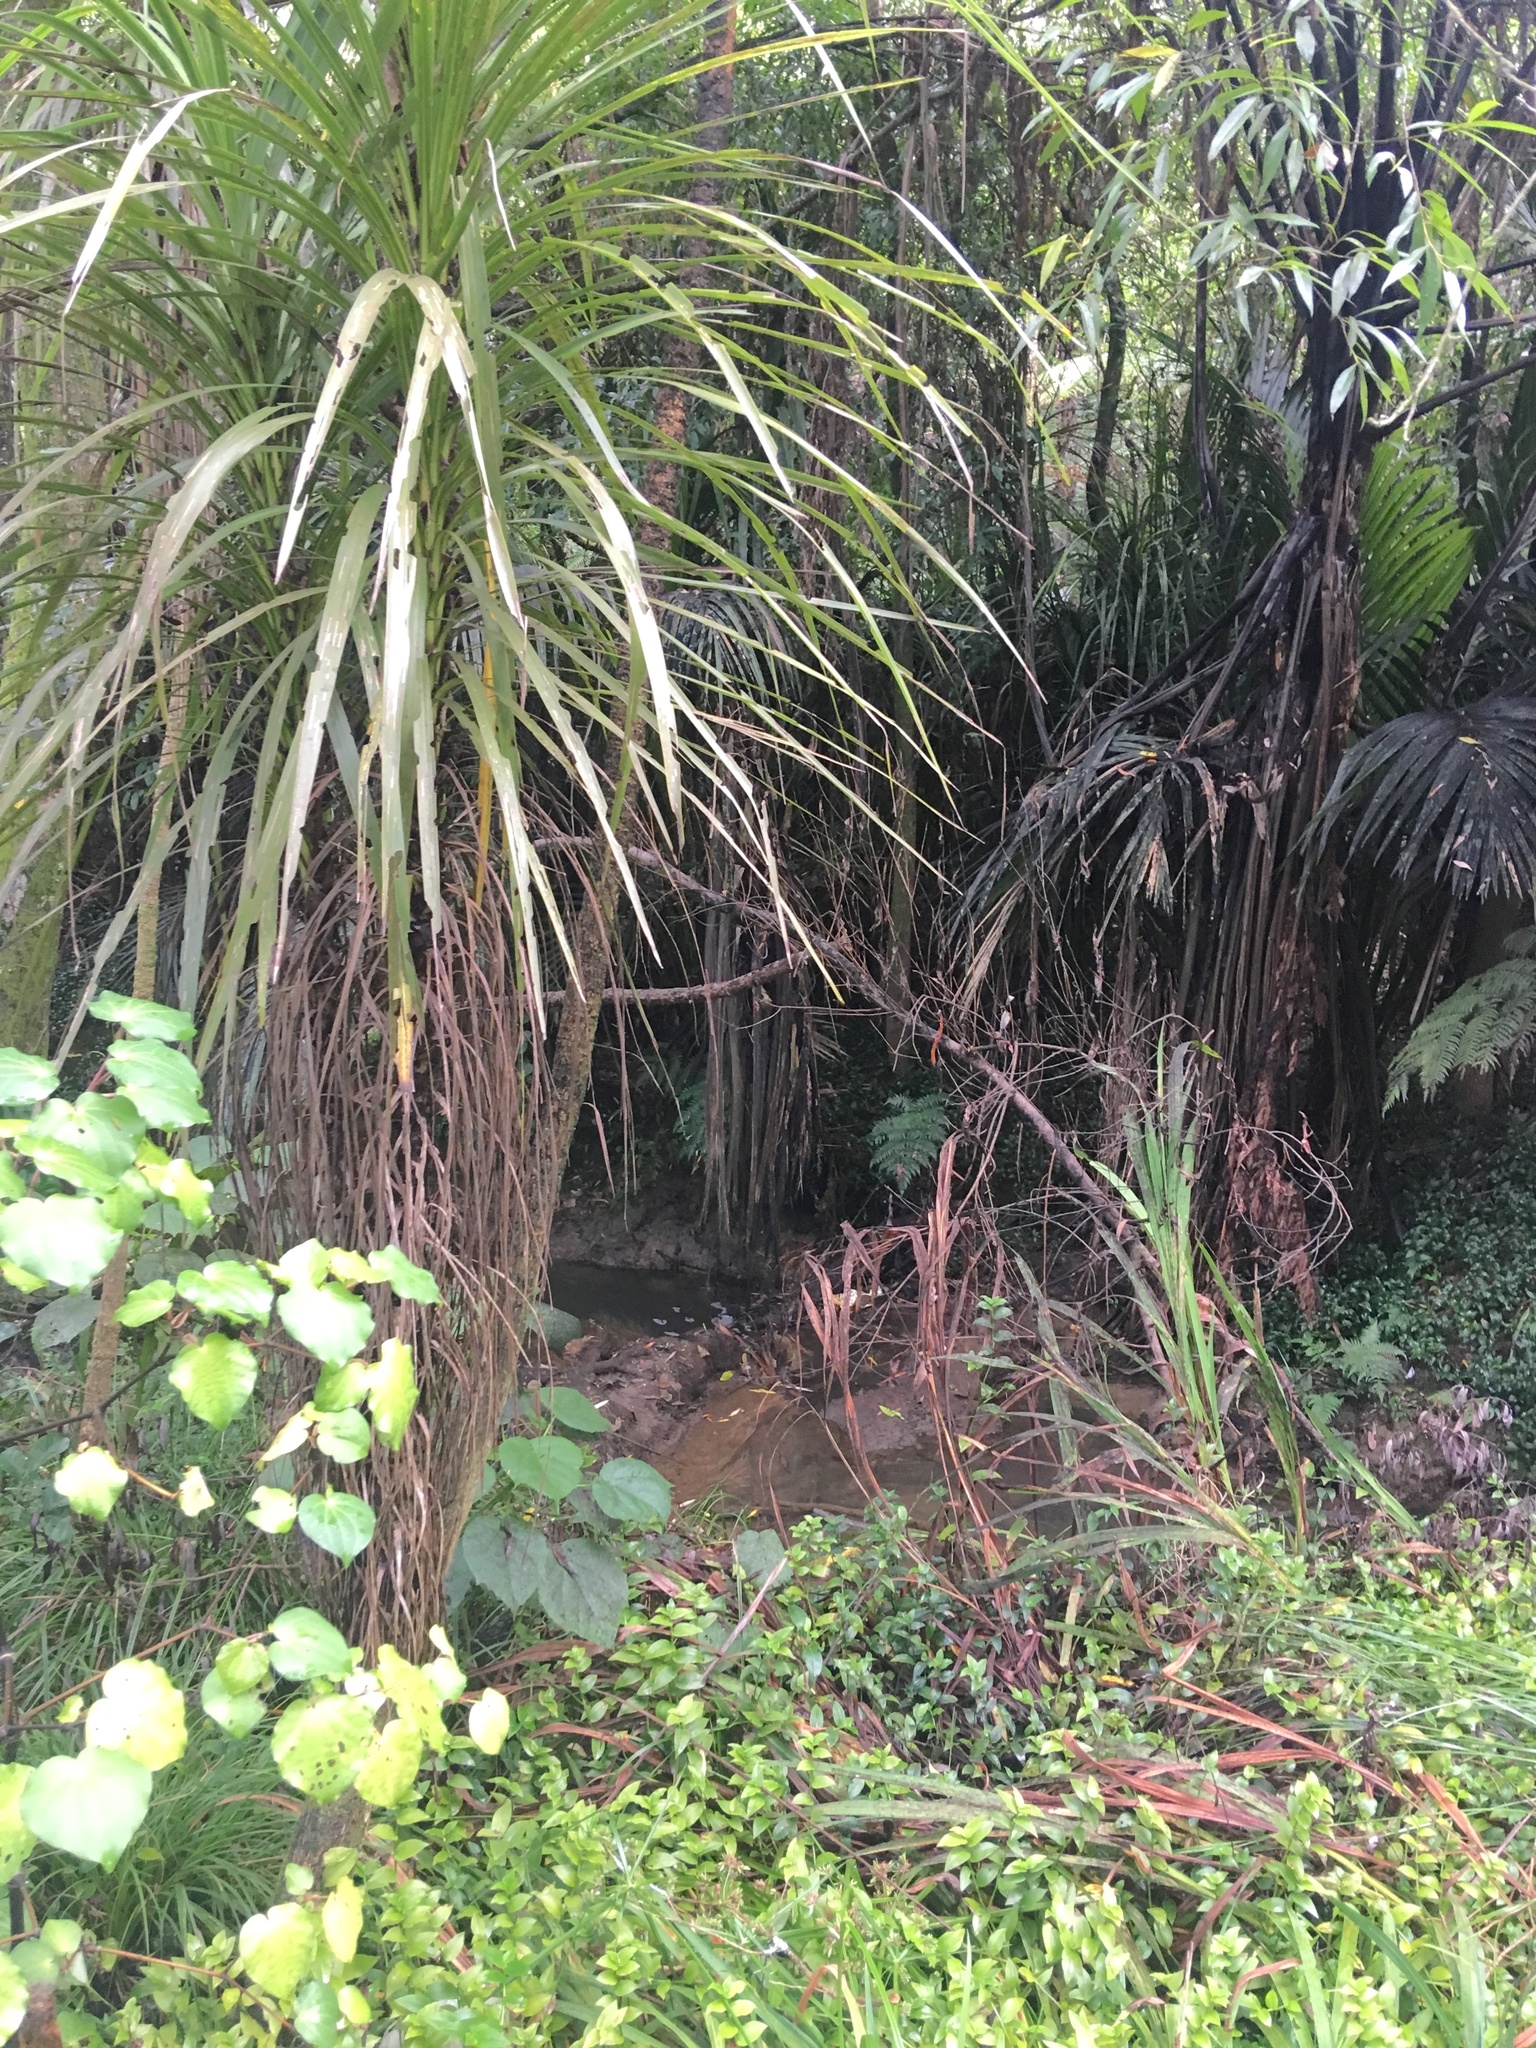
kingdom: Plantae
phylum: Tracheophyta
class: Liliopsida
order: Asparagales
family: Asparagaceae
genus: Cordyline
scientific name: Cordyline australis
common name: Cabbage-palm
